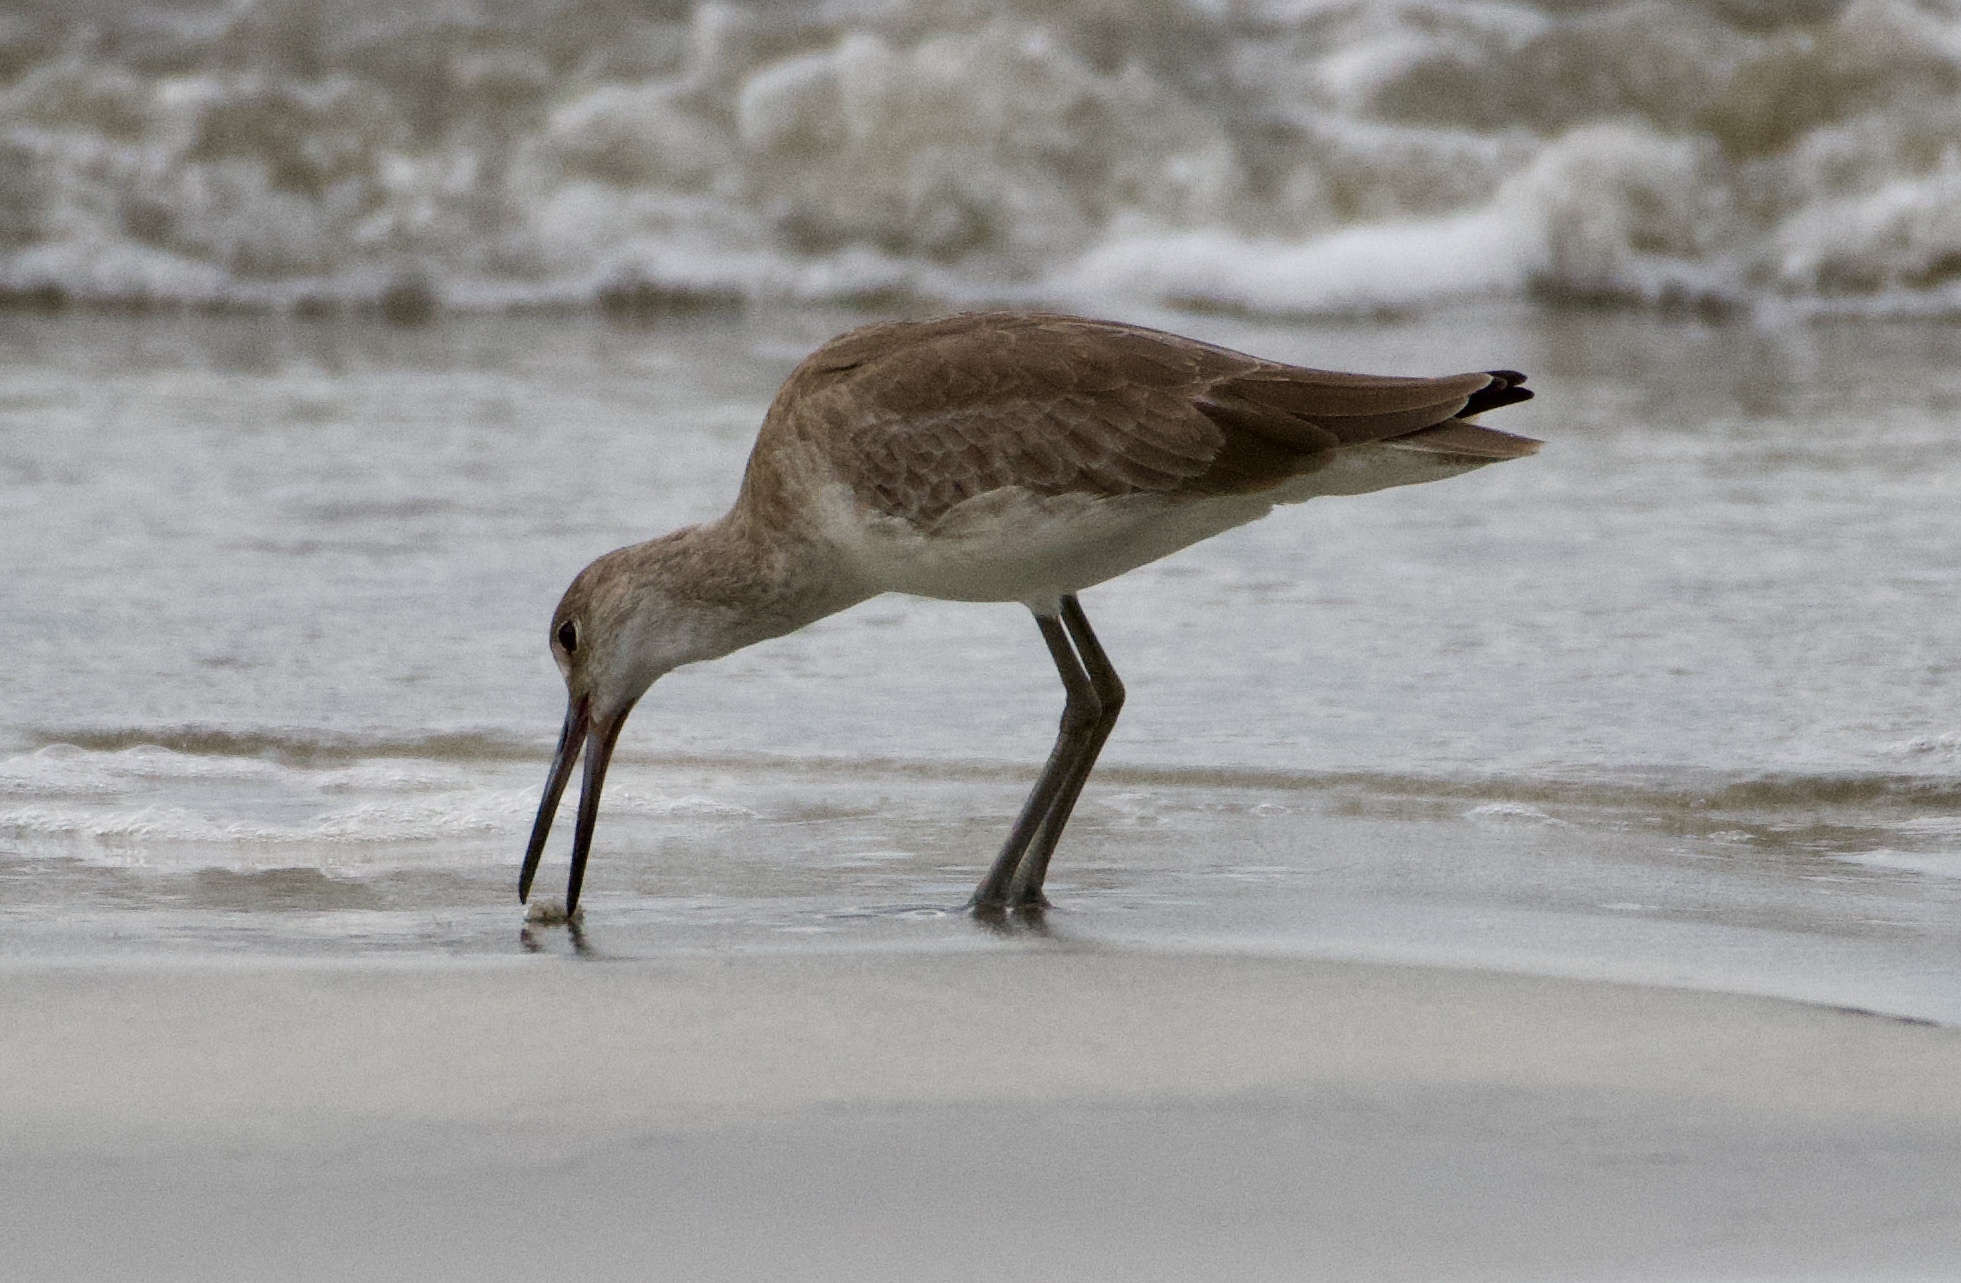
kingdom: Animalia
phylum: Chordata
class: Aves
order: Charadriiformes
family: Scolopacidae
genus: Tringa
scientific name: Tringa semipalmata
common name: Willet
